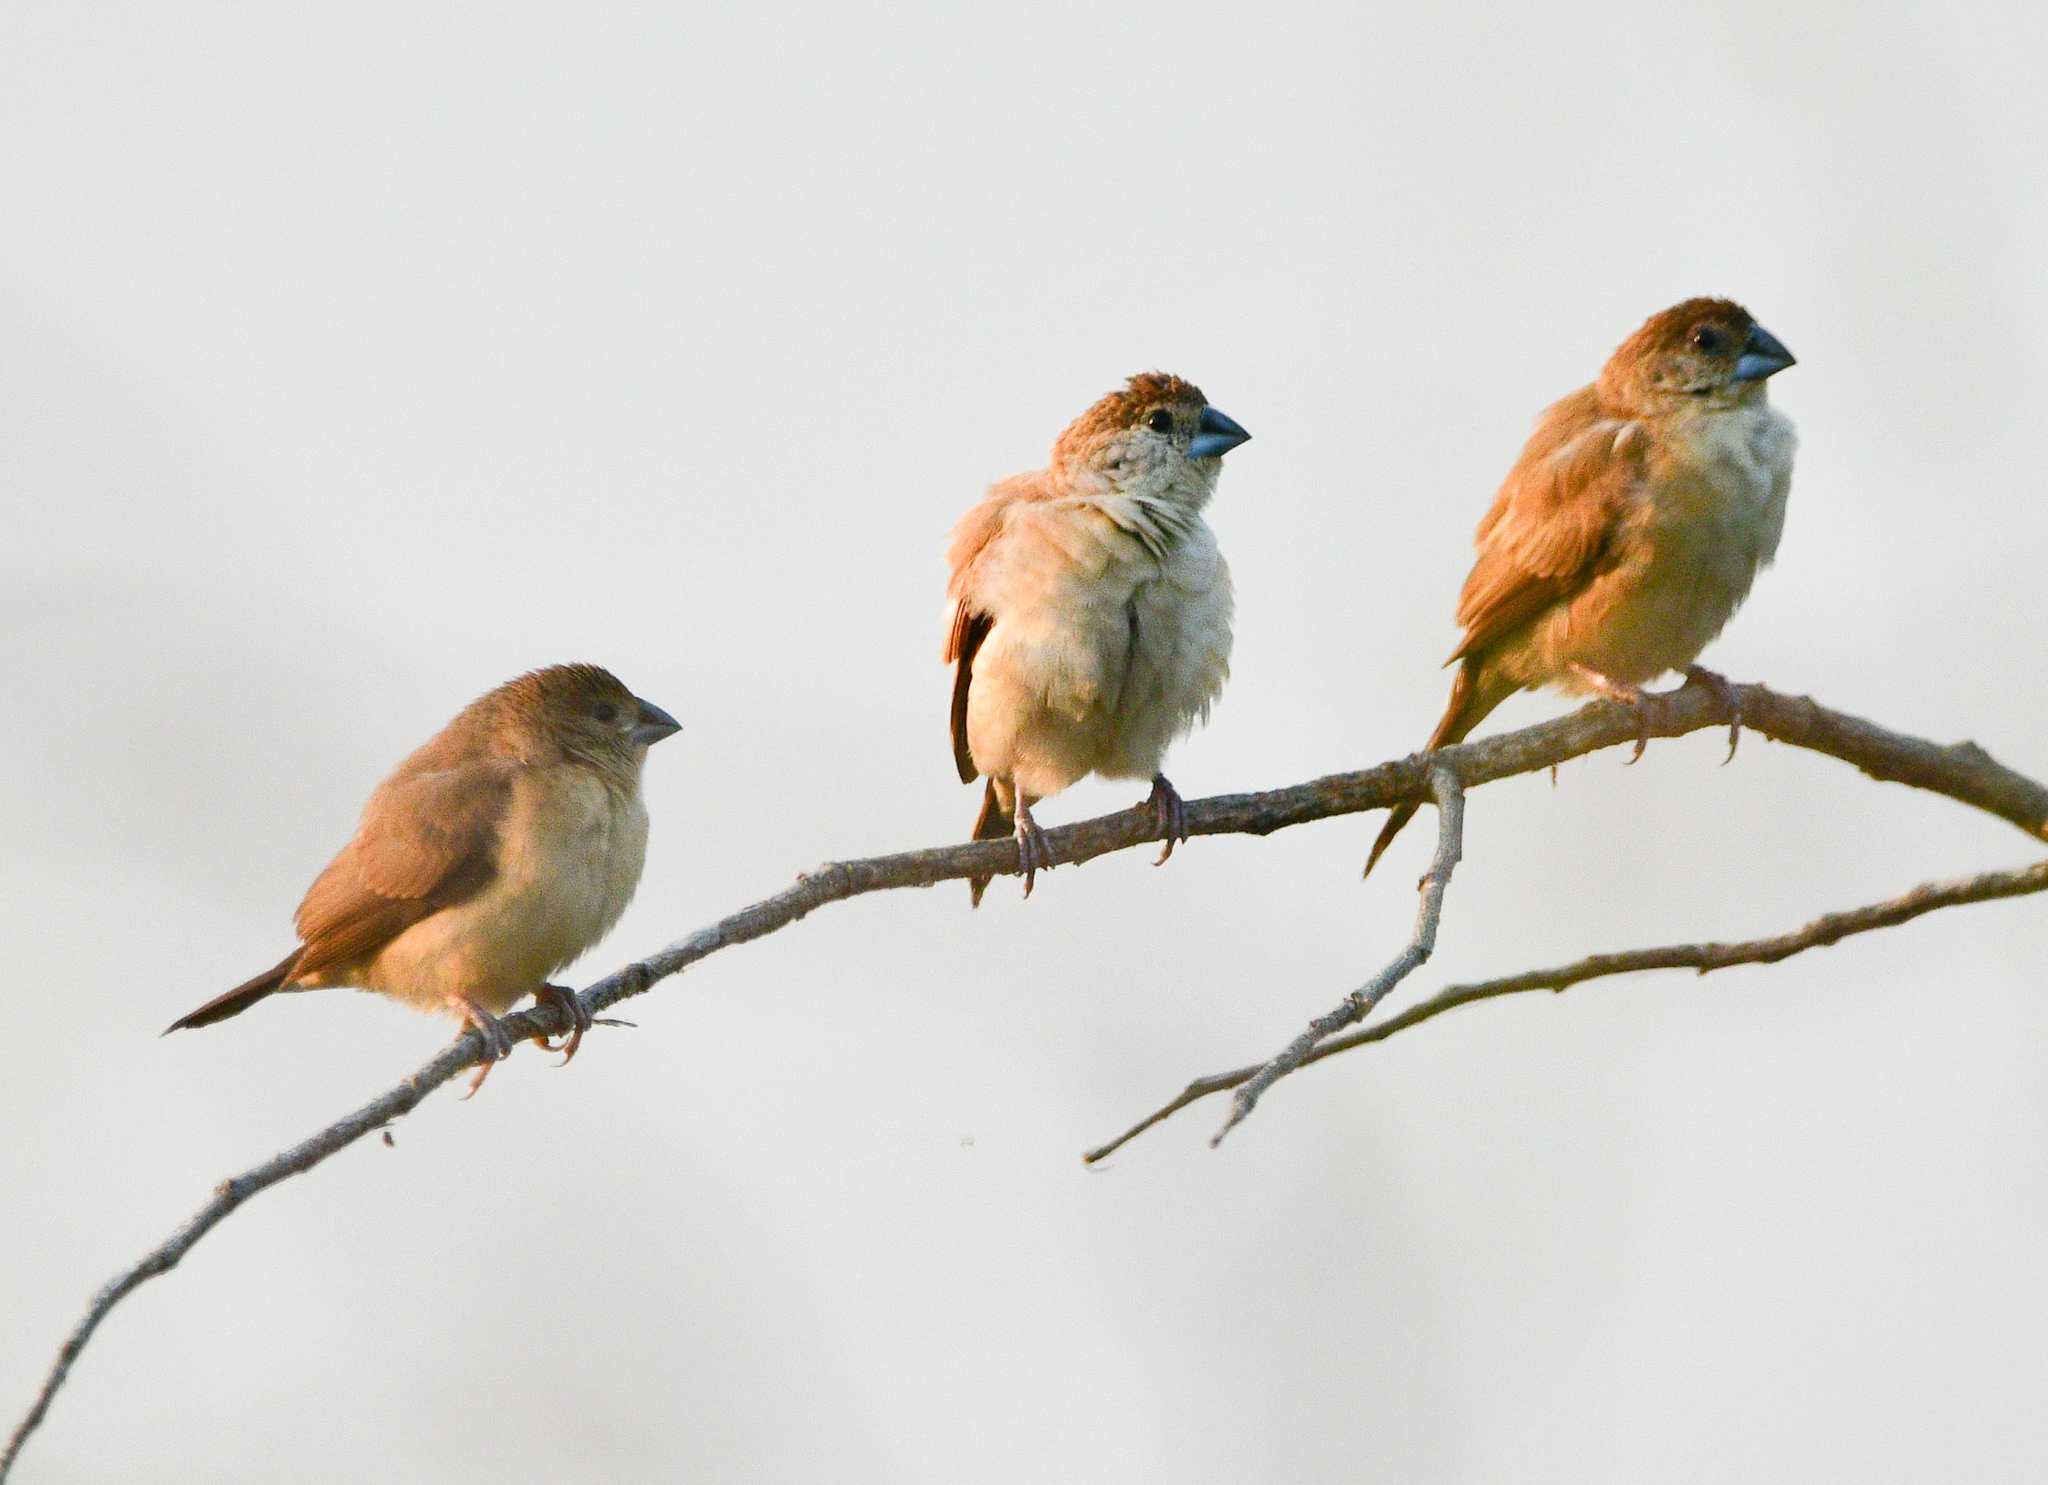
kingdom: Animalia
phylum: Chordata
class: Aves
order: Passeriformes
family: Estrildidae
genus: Euodice
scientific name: Euodice malabarica
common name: Indian silverbill
